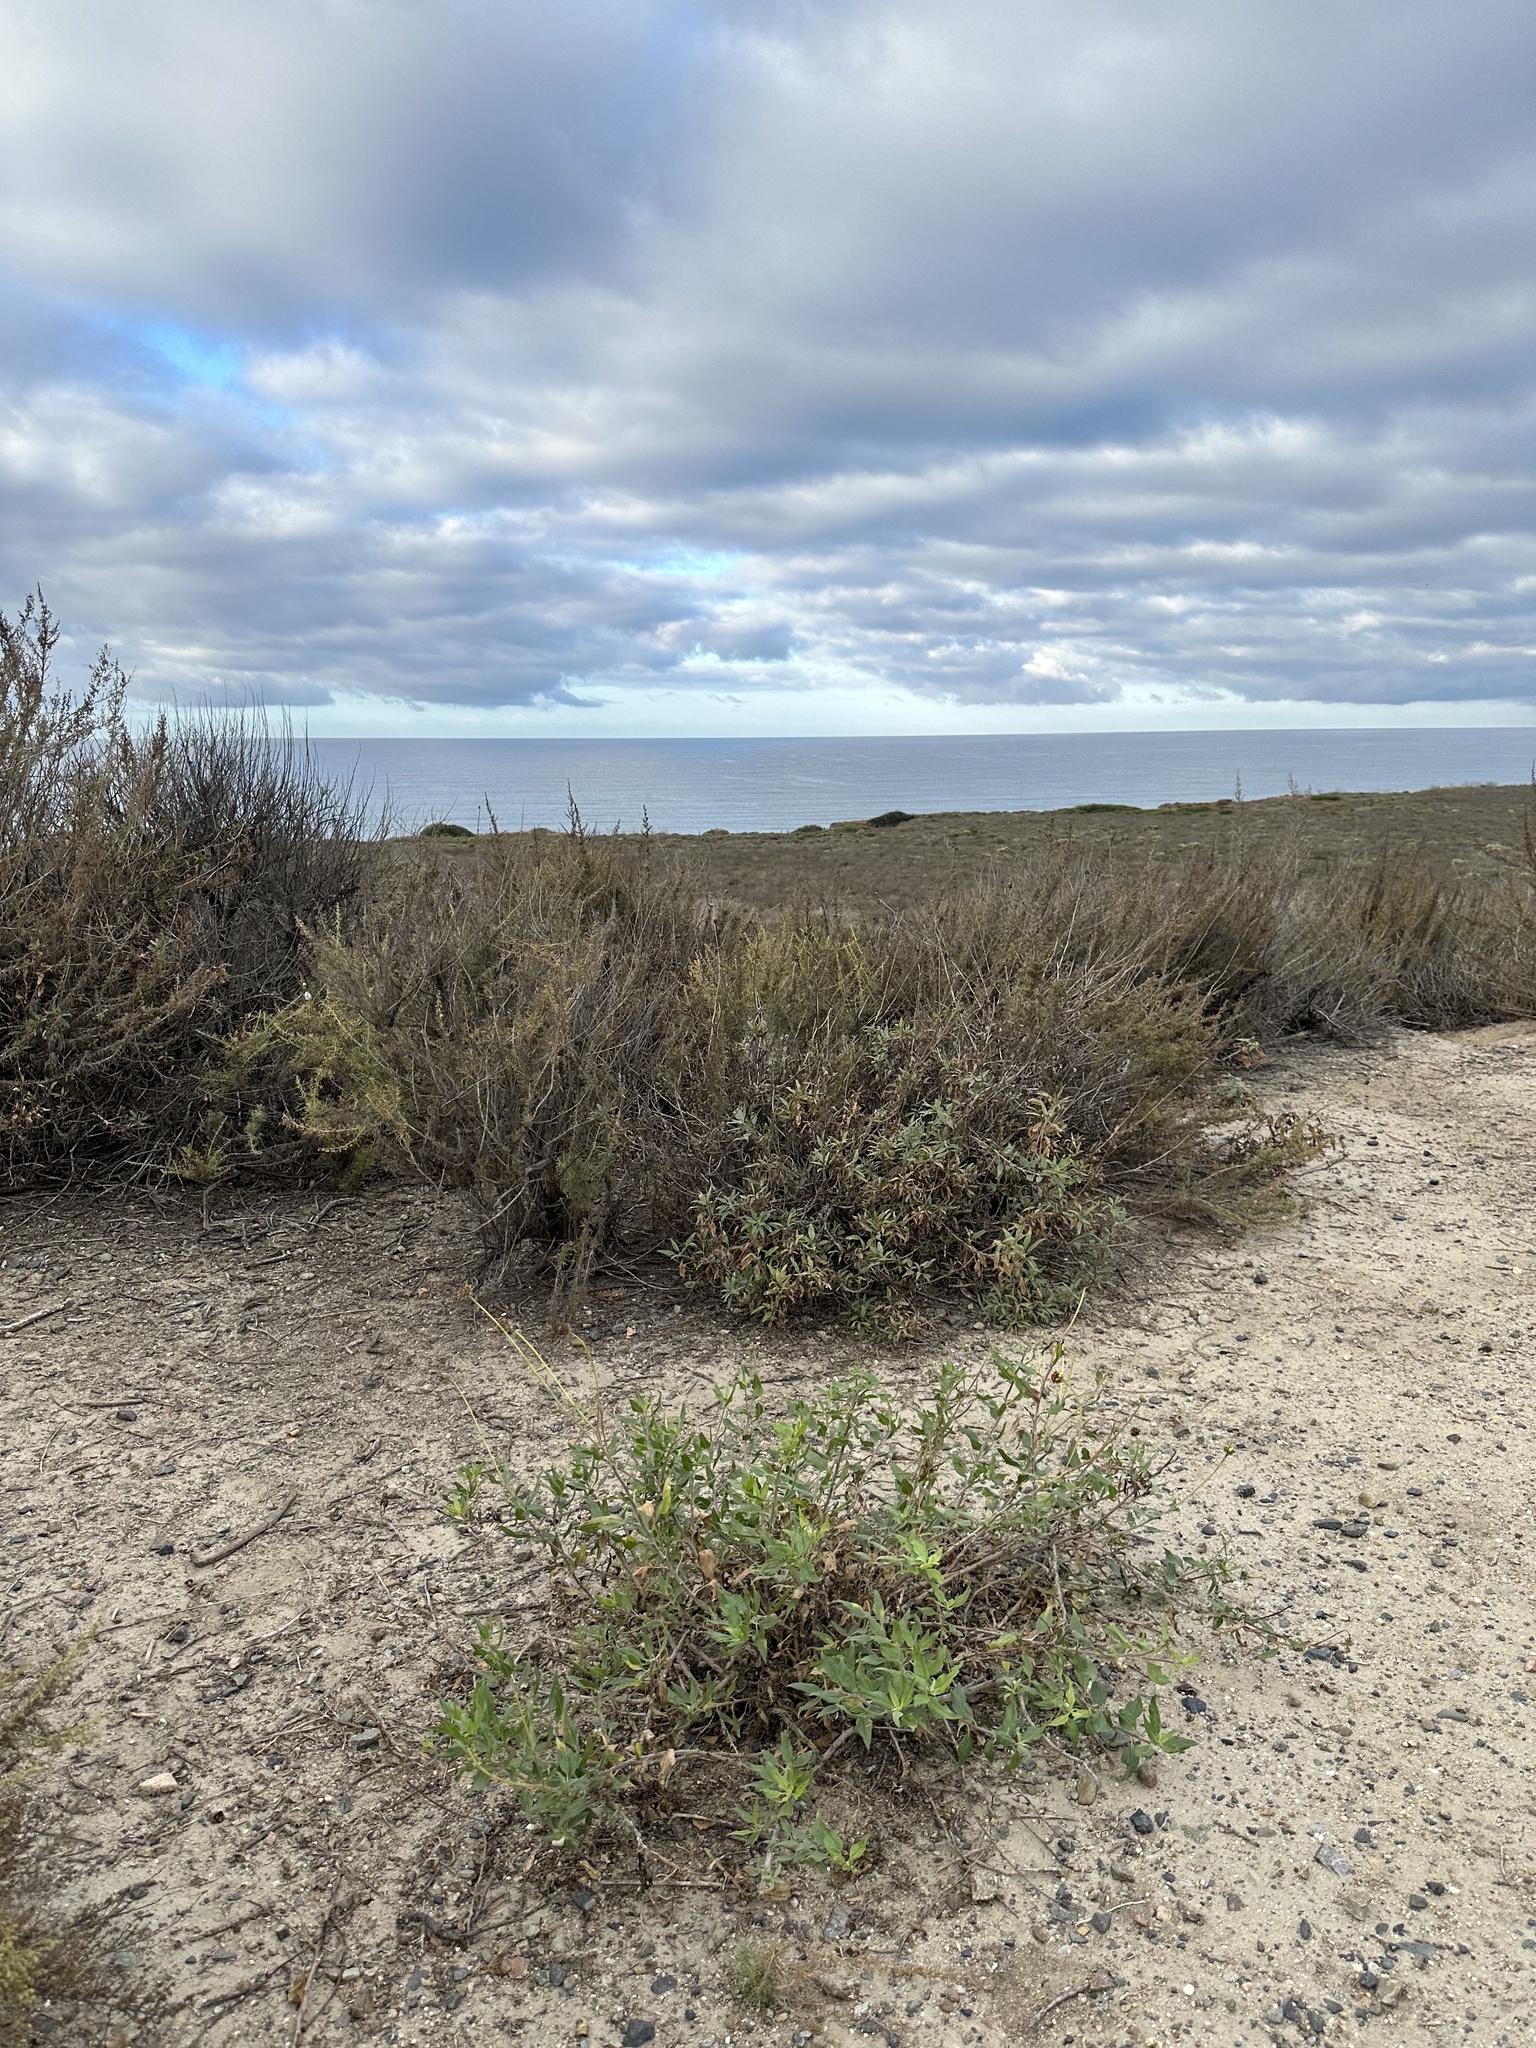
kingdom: Plantae
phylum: Tracheophyta
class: Magnoliopsida
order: Asterales
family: Asteraceae
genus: Encelia
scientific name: Encelia californica
